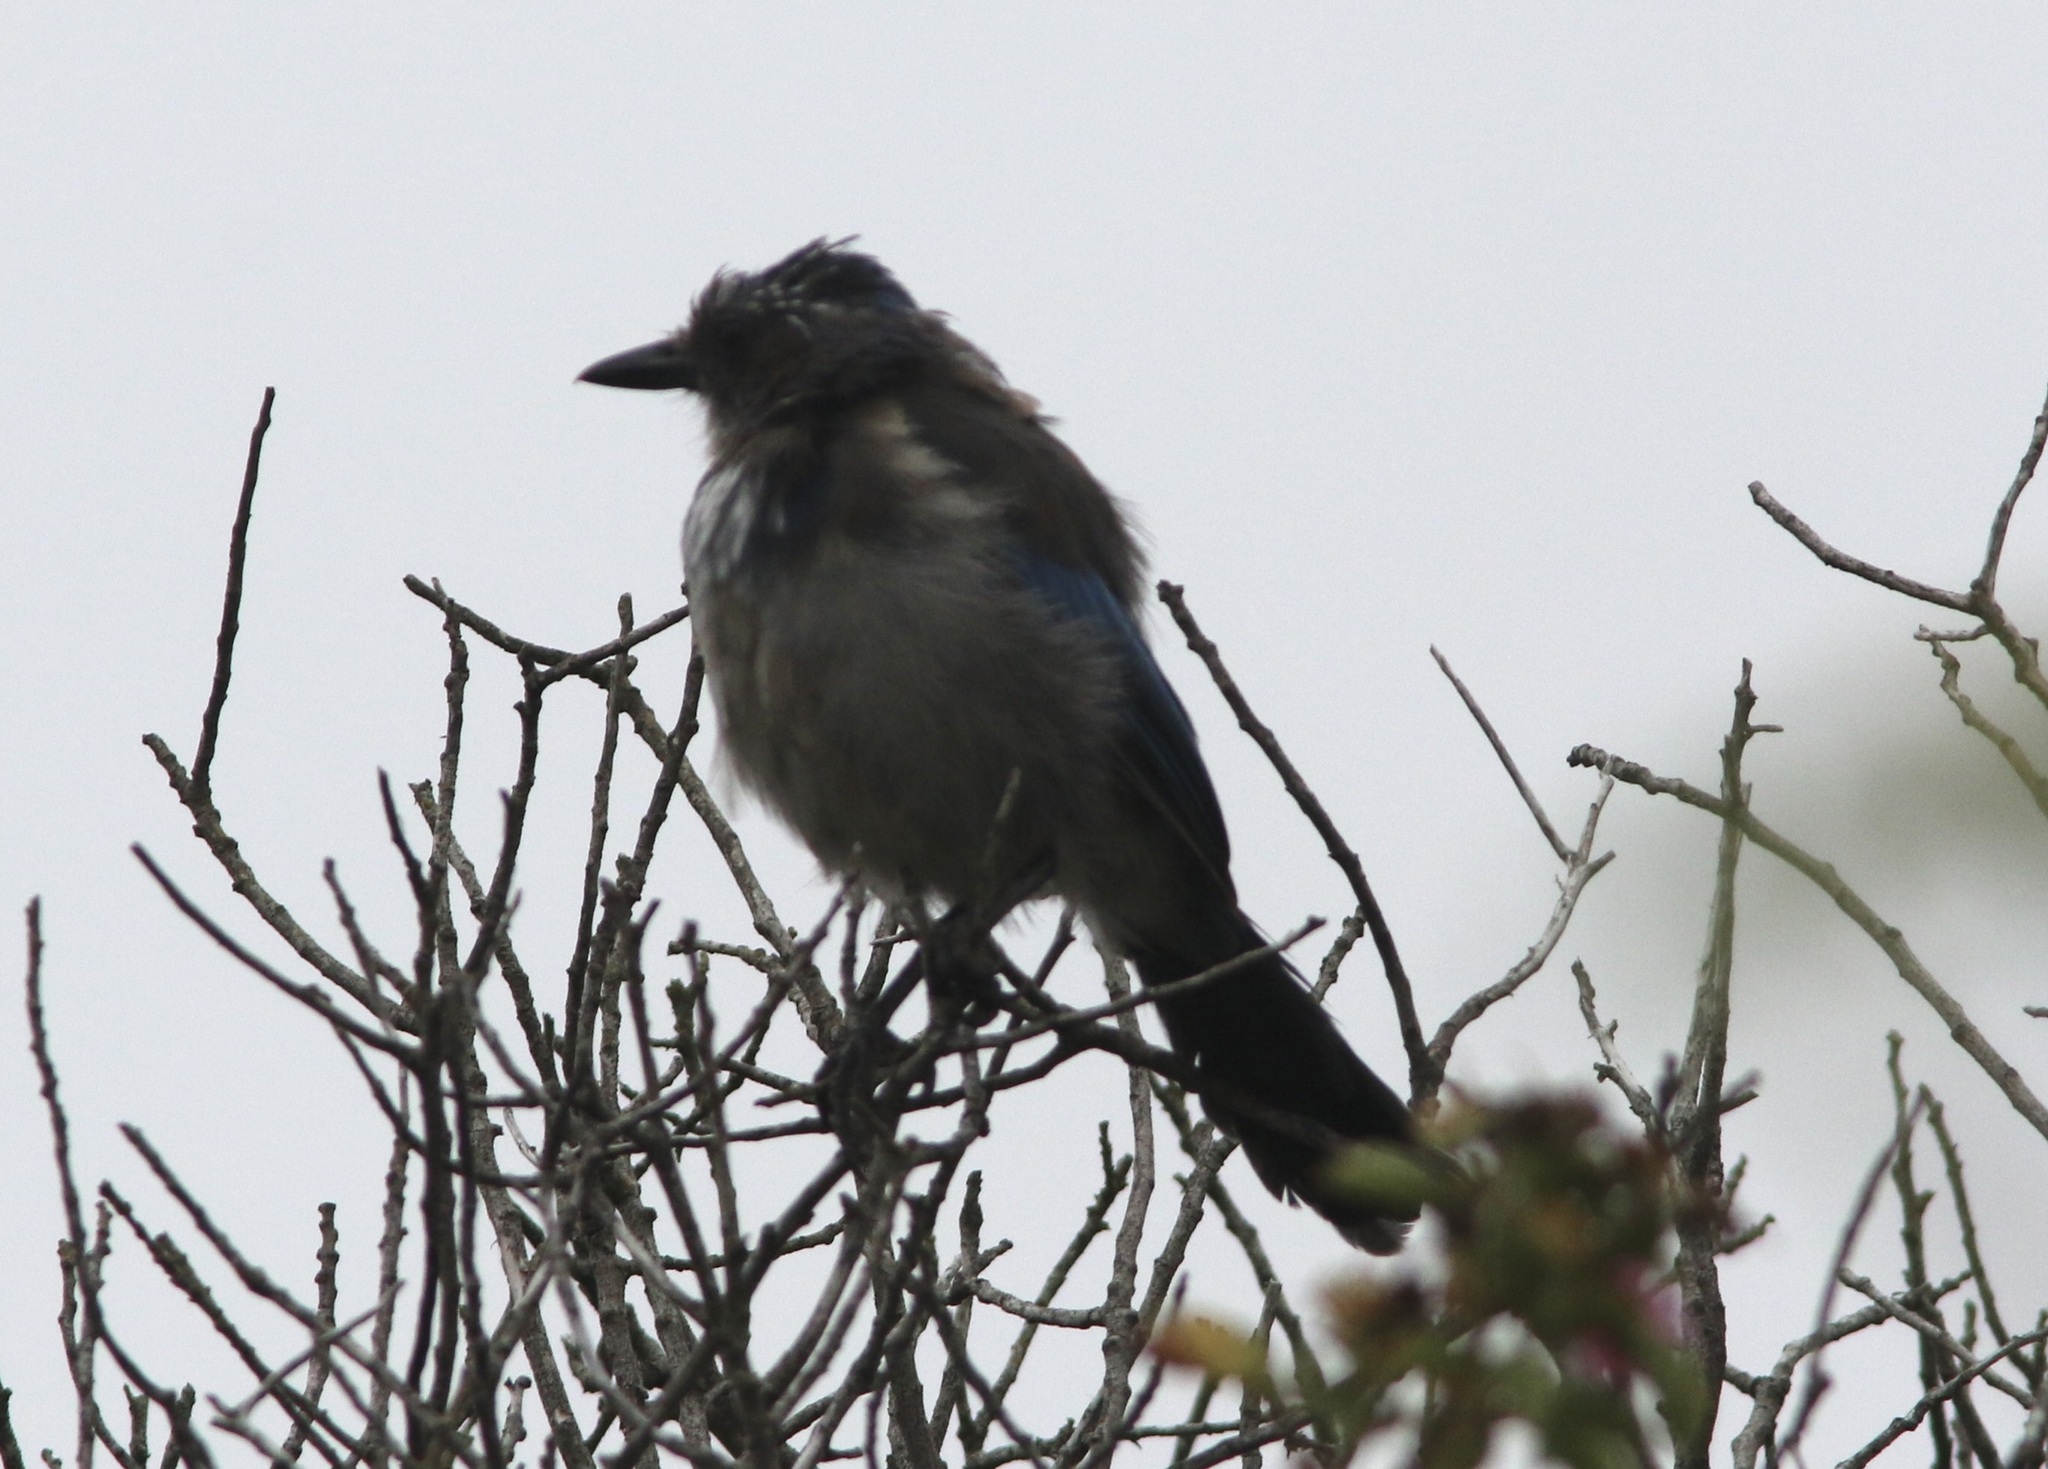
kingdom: Animalia
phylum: Chordata
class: Aves
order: Passeriformes
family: Corvidae
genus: Aphelocoma
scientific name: Aphelocoma californica
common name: California scrub-jay
